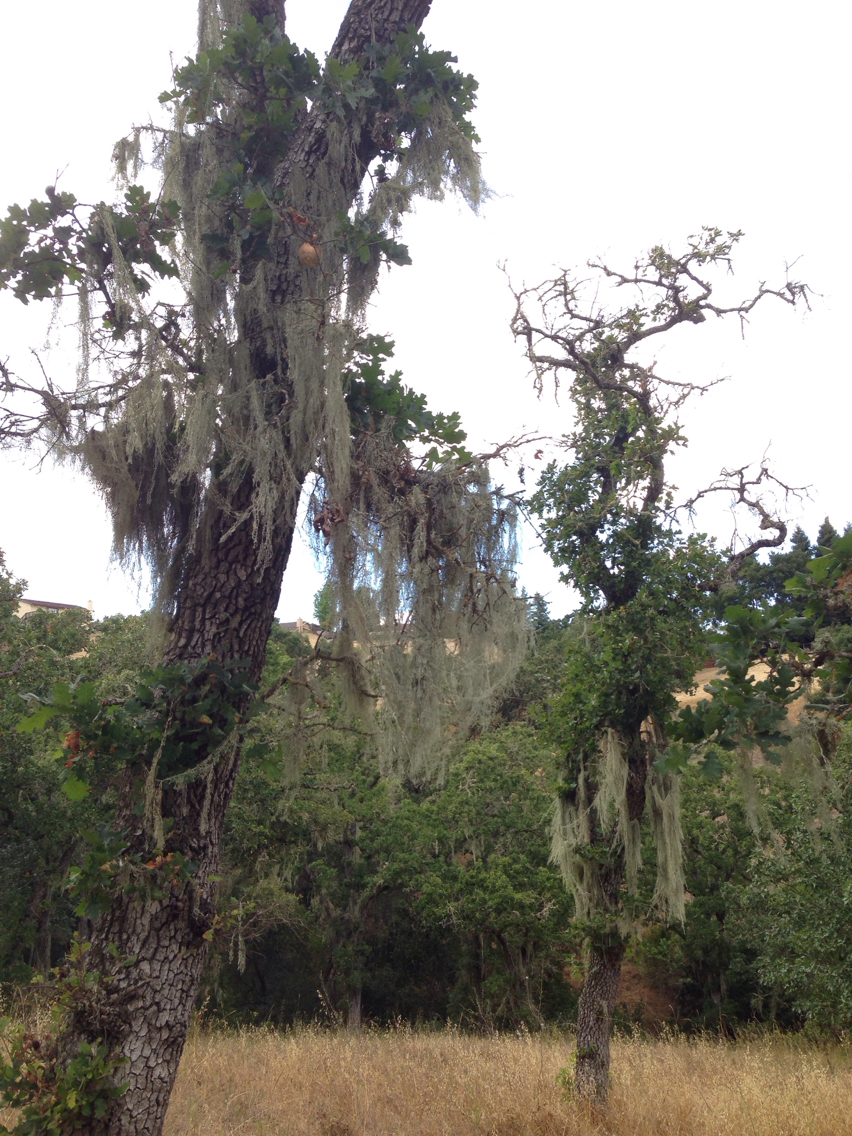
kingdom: Fungi
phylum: Ascomycota
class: Lecanoromycetes
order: Lecanorales
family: Ramalinaceae
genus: Ramalina
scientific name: Ramalina menziesii
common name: Lace lichen
